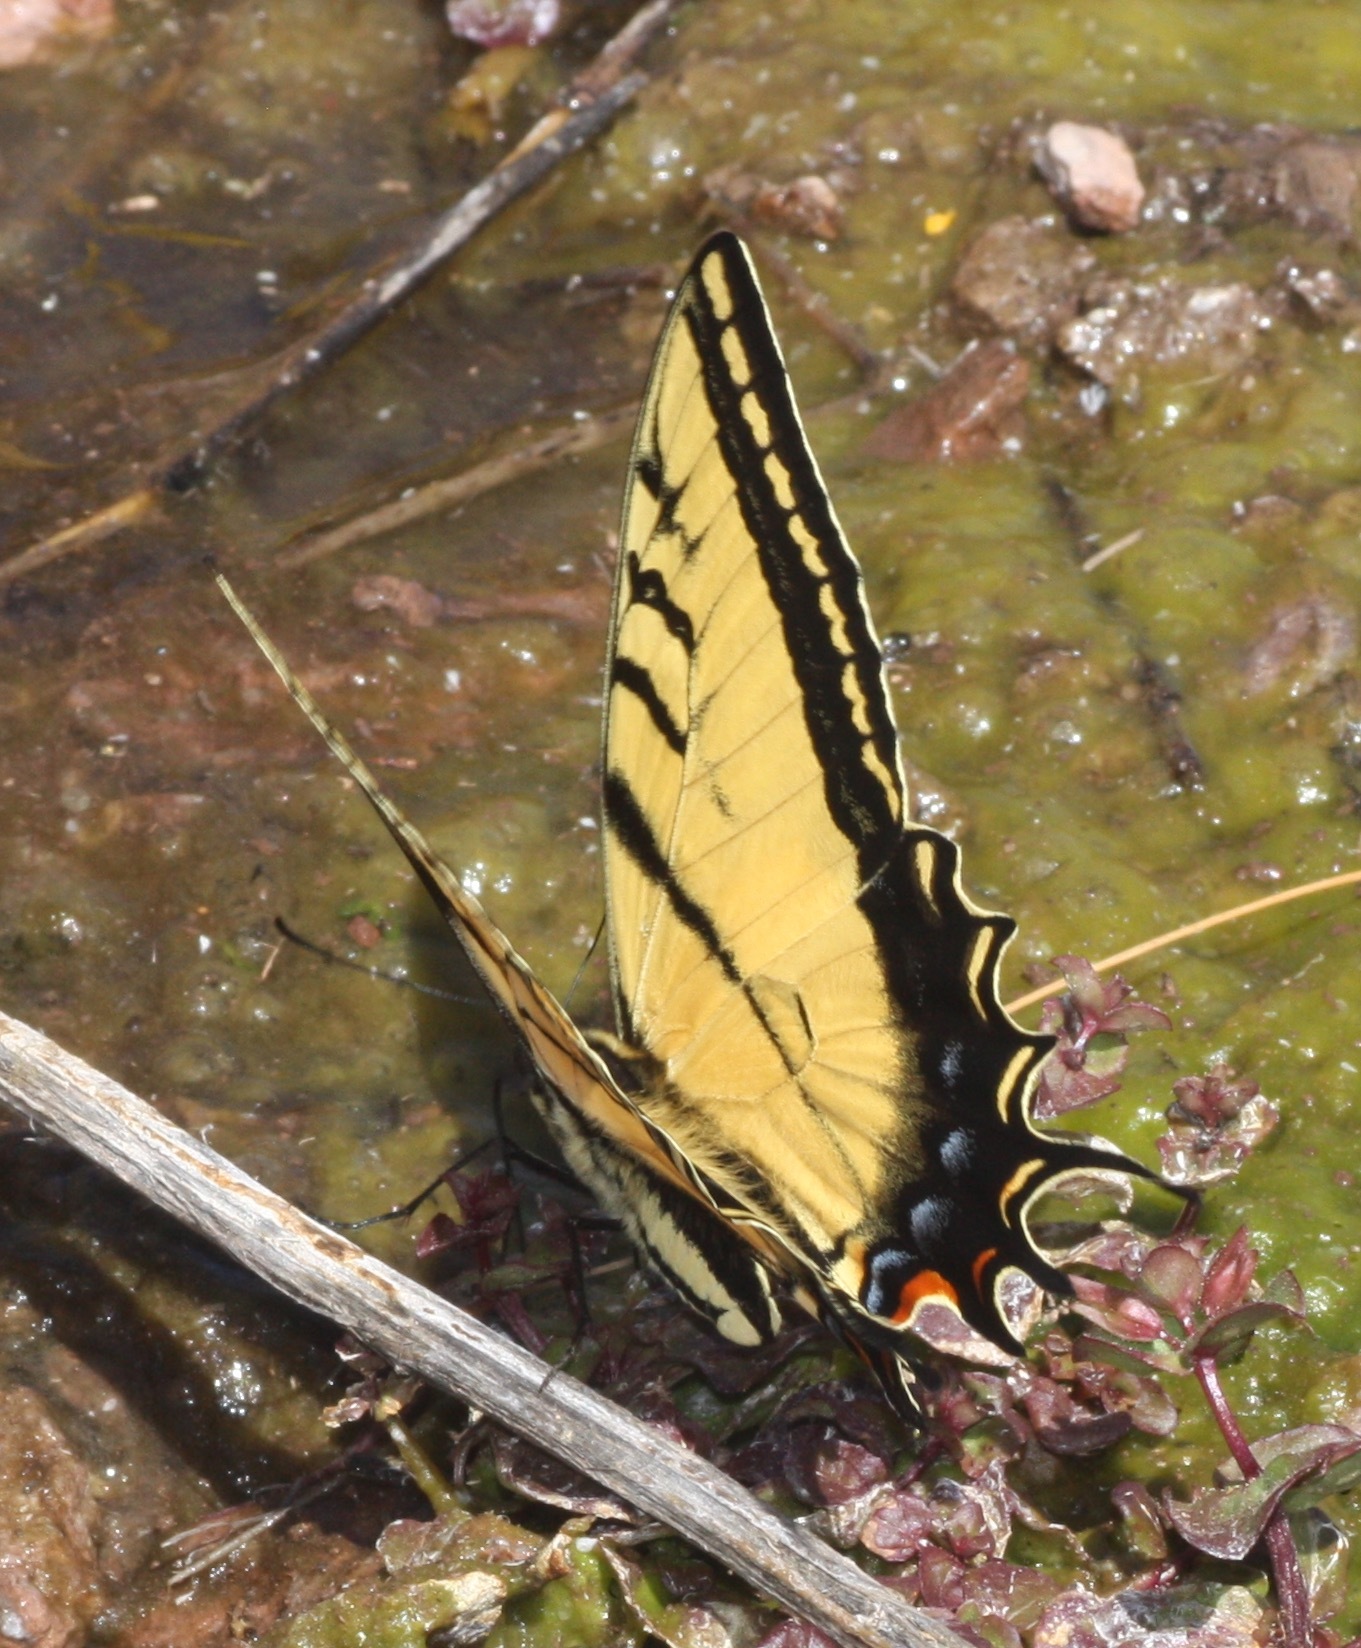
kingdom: Animalia
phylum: Arthropoda
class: Insecta
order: Lepidoptera
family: Papilionidae
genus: Papilio
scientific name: Papilio multicaudata
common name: Two-tailed tiger swallowtail
